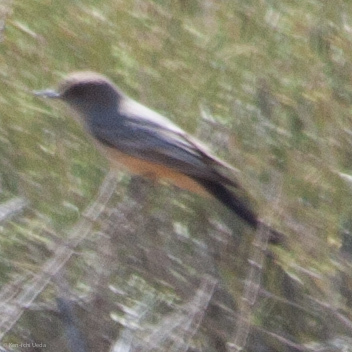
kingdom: Animalia
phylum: Chordata
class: Aves
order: Passeriformes
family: Tyrannidae
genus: Sayornis
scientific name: Sayornis saya
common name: Say's phoebe
